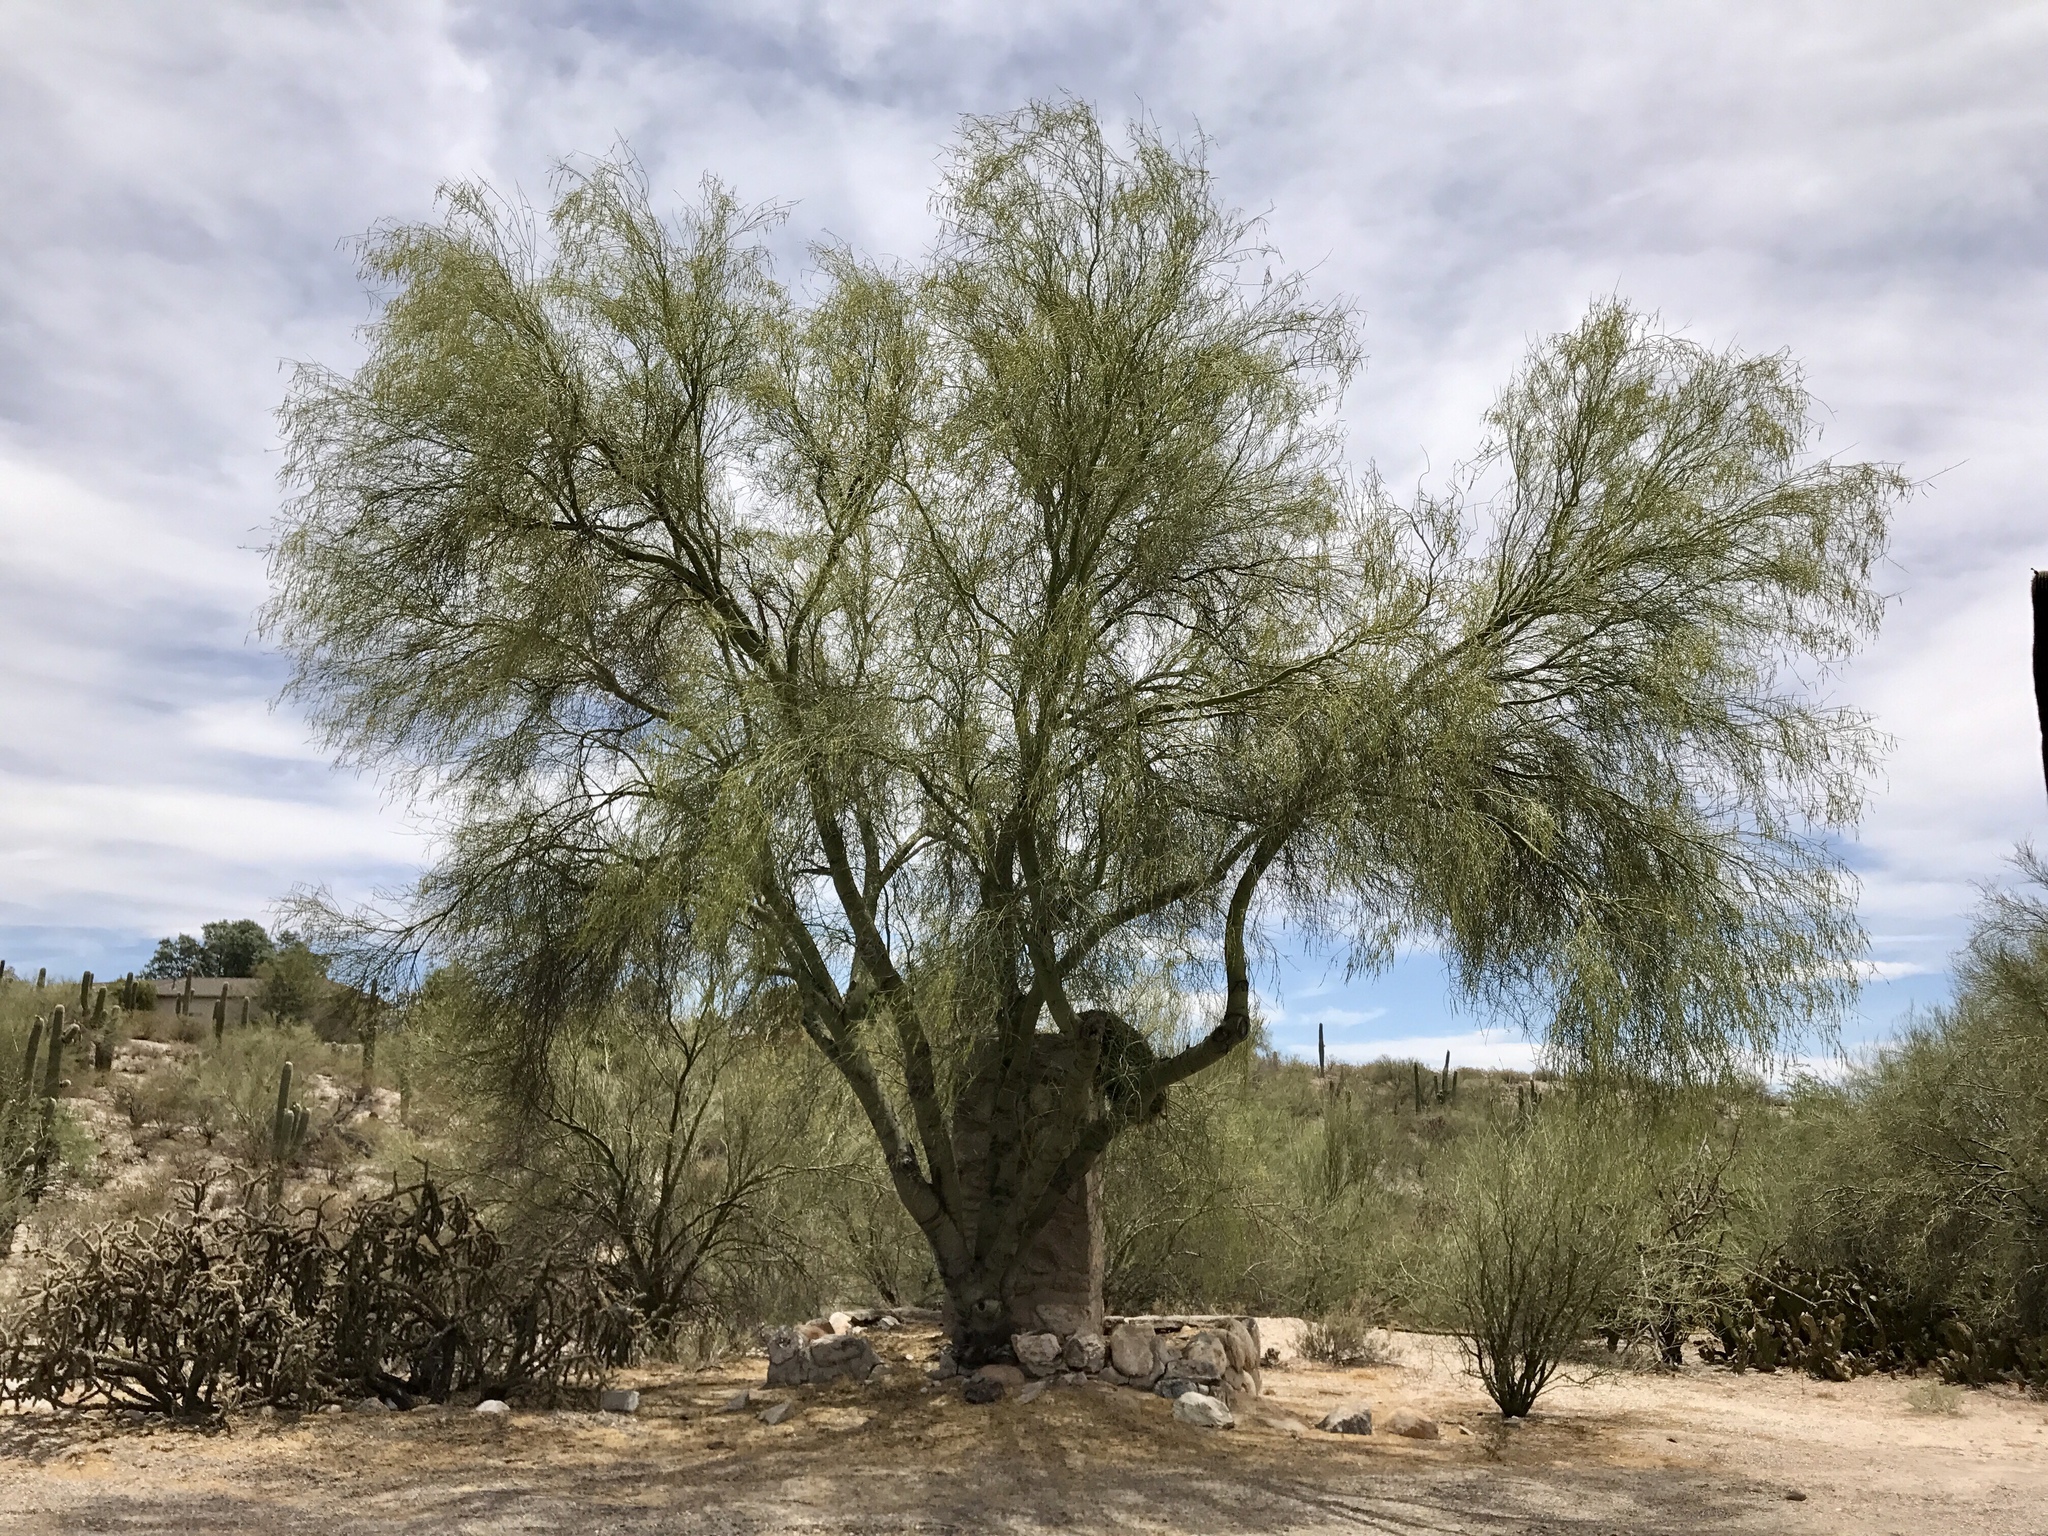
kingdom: Plantae
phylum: Tracheophyta
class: Magnoliopsida
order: Fabales
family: Fabaceae
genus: Parkinsonia
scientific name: Parkinsonia microphylla
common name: Yellow paloverde
